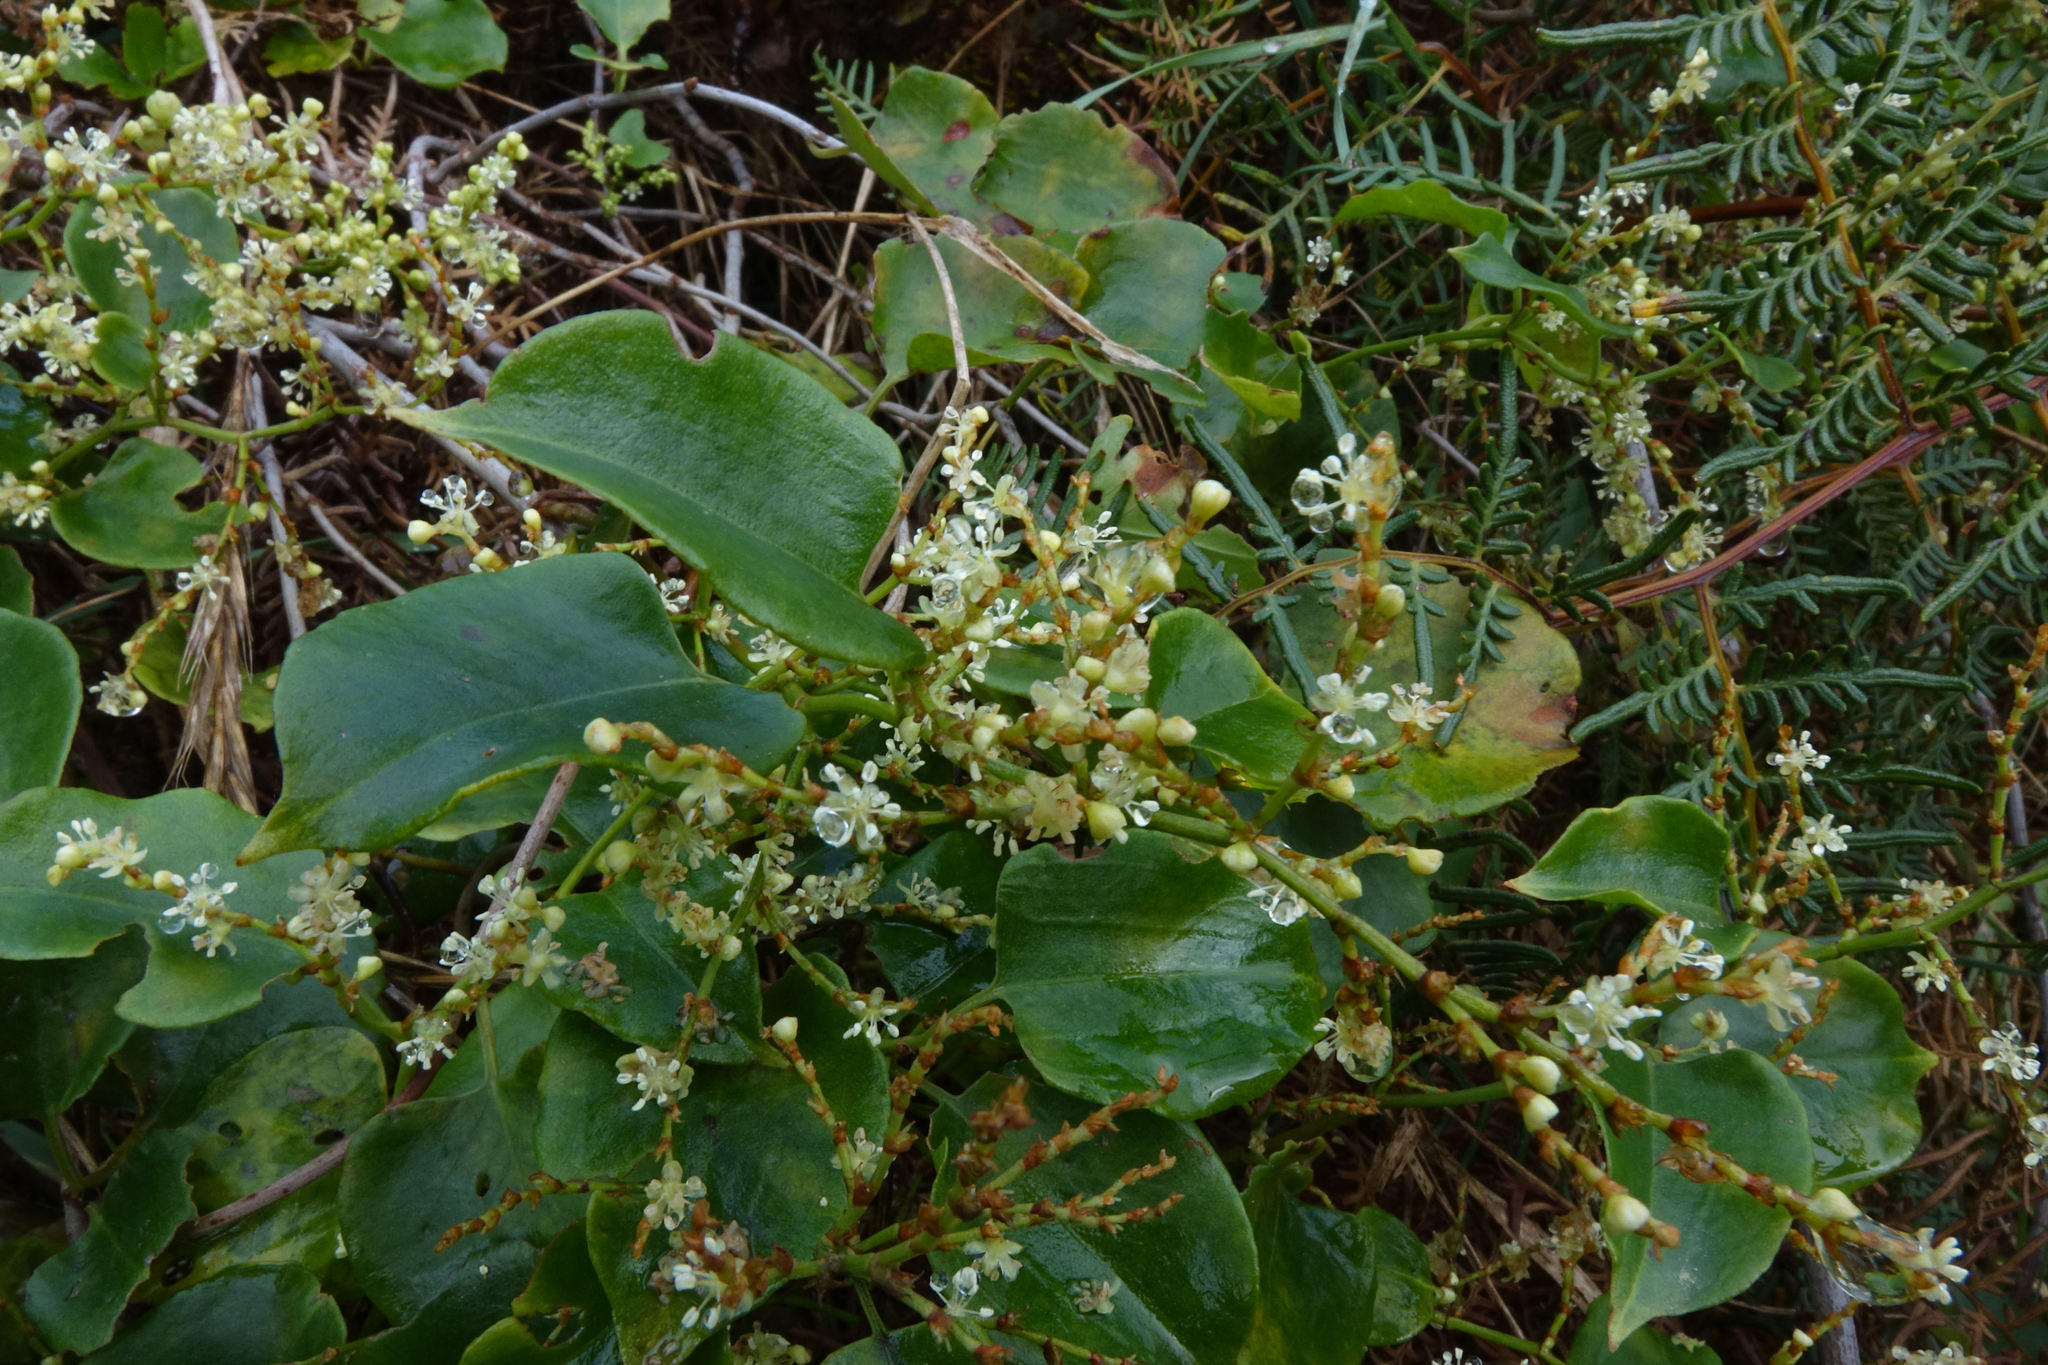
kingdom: Plantae
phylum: Tracheophyta
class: Magnoliopsida
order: Caryophyllales
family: Polygonaceae
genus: Muehlenbeckia
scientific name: Muehlenbeckia australis
